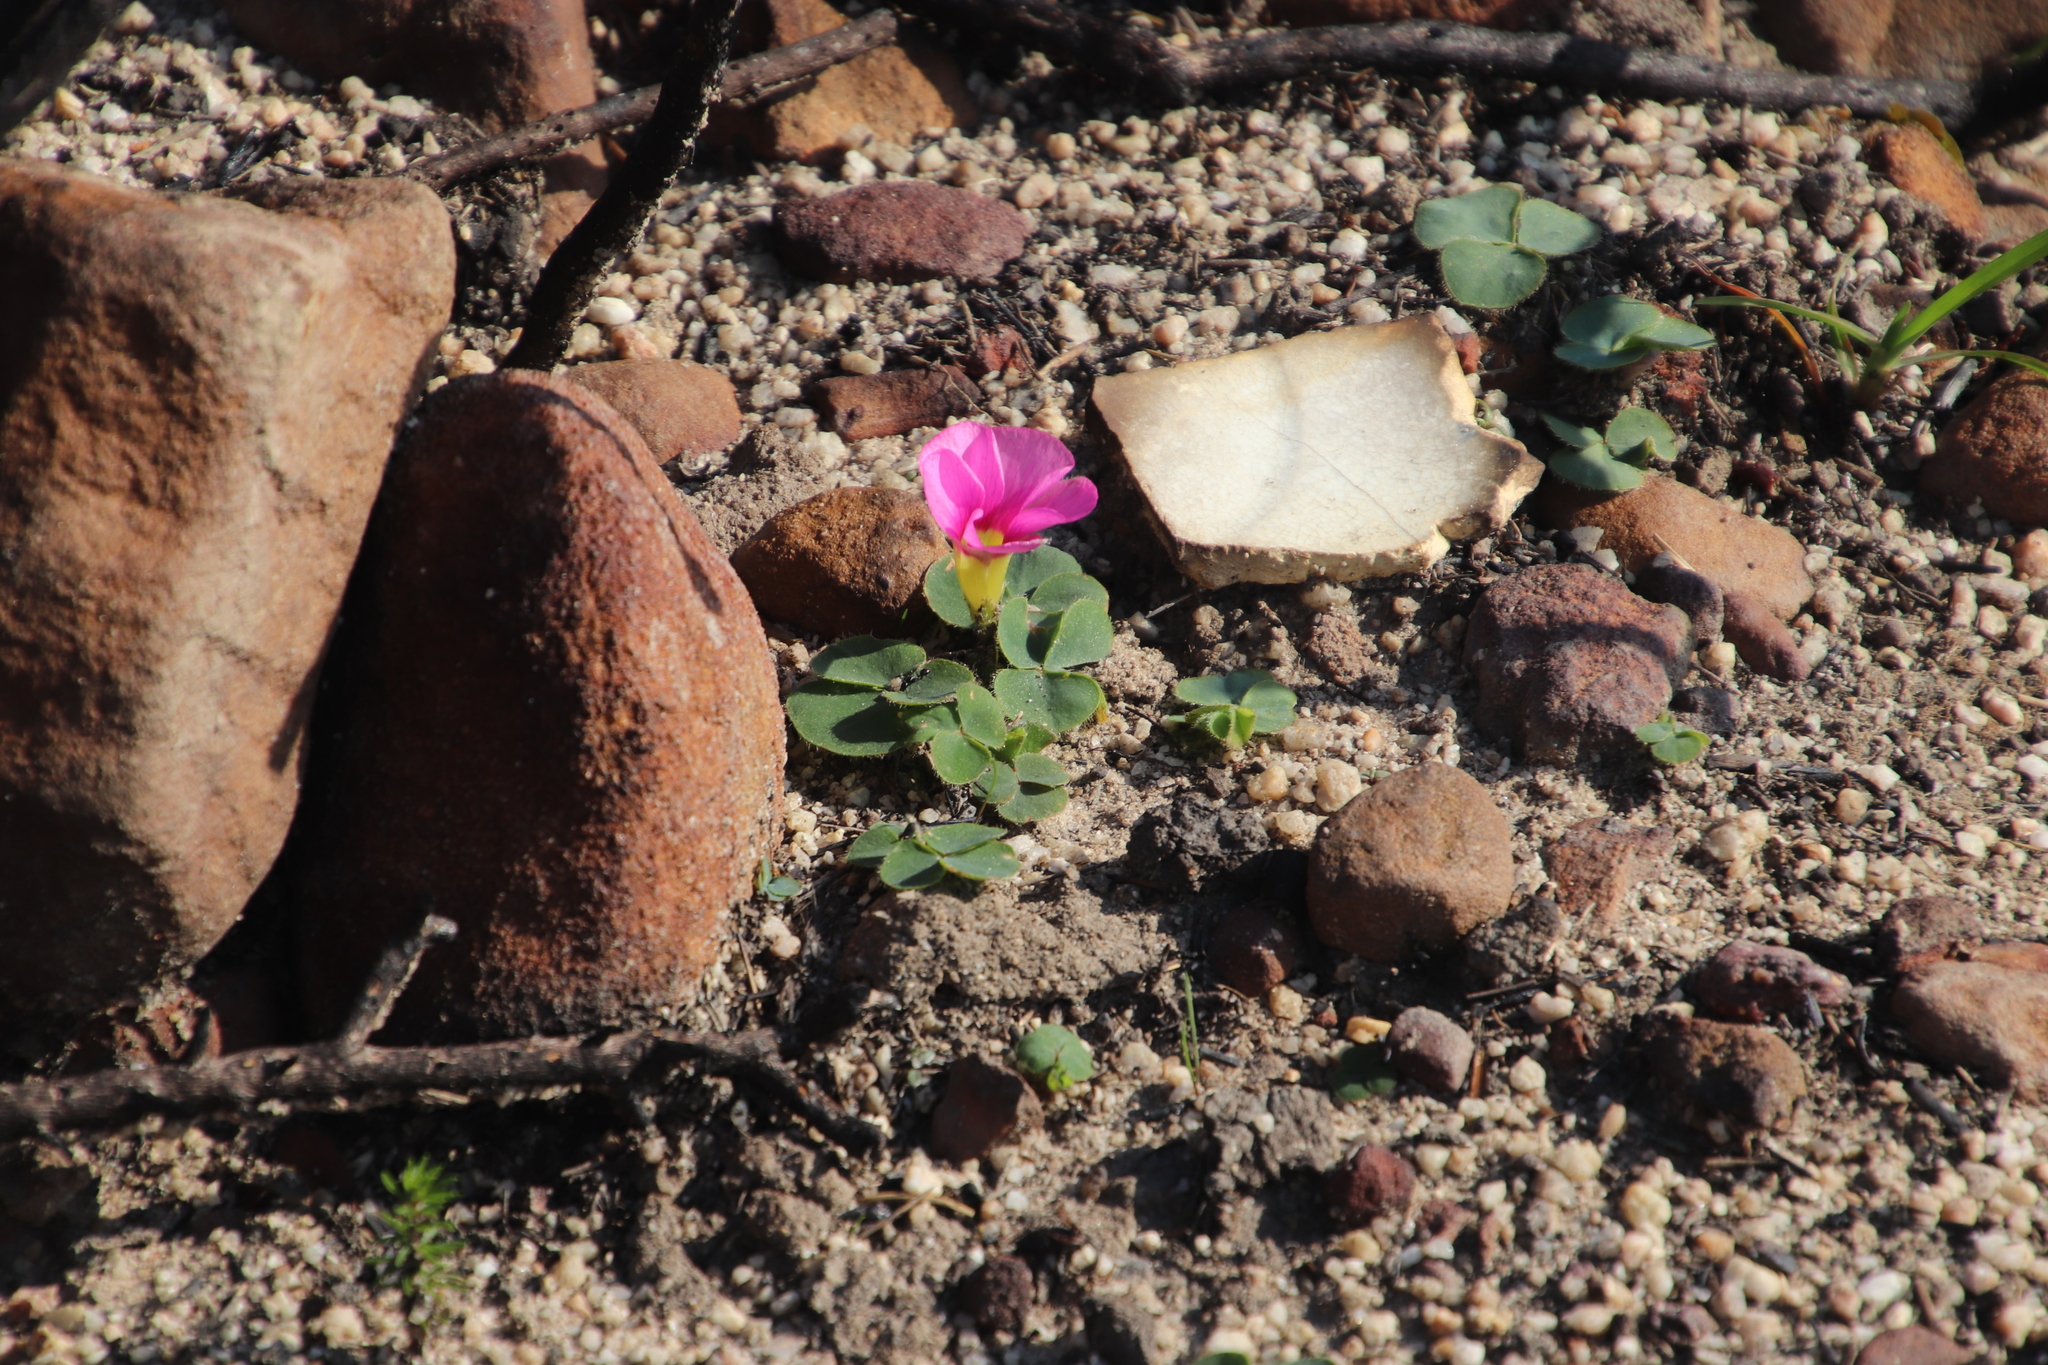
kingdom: Plantae
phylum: Tracheophyta
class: Magnoliopsida
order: Oxalidales
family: Oxalidaceae
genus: Oxalis
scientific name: Oxalis purpurea
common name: Purple woodsorrel
